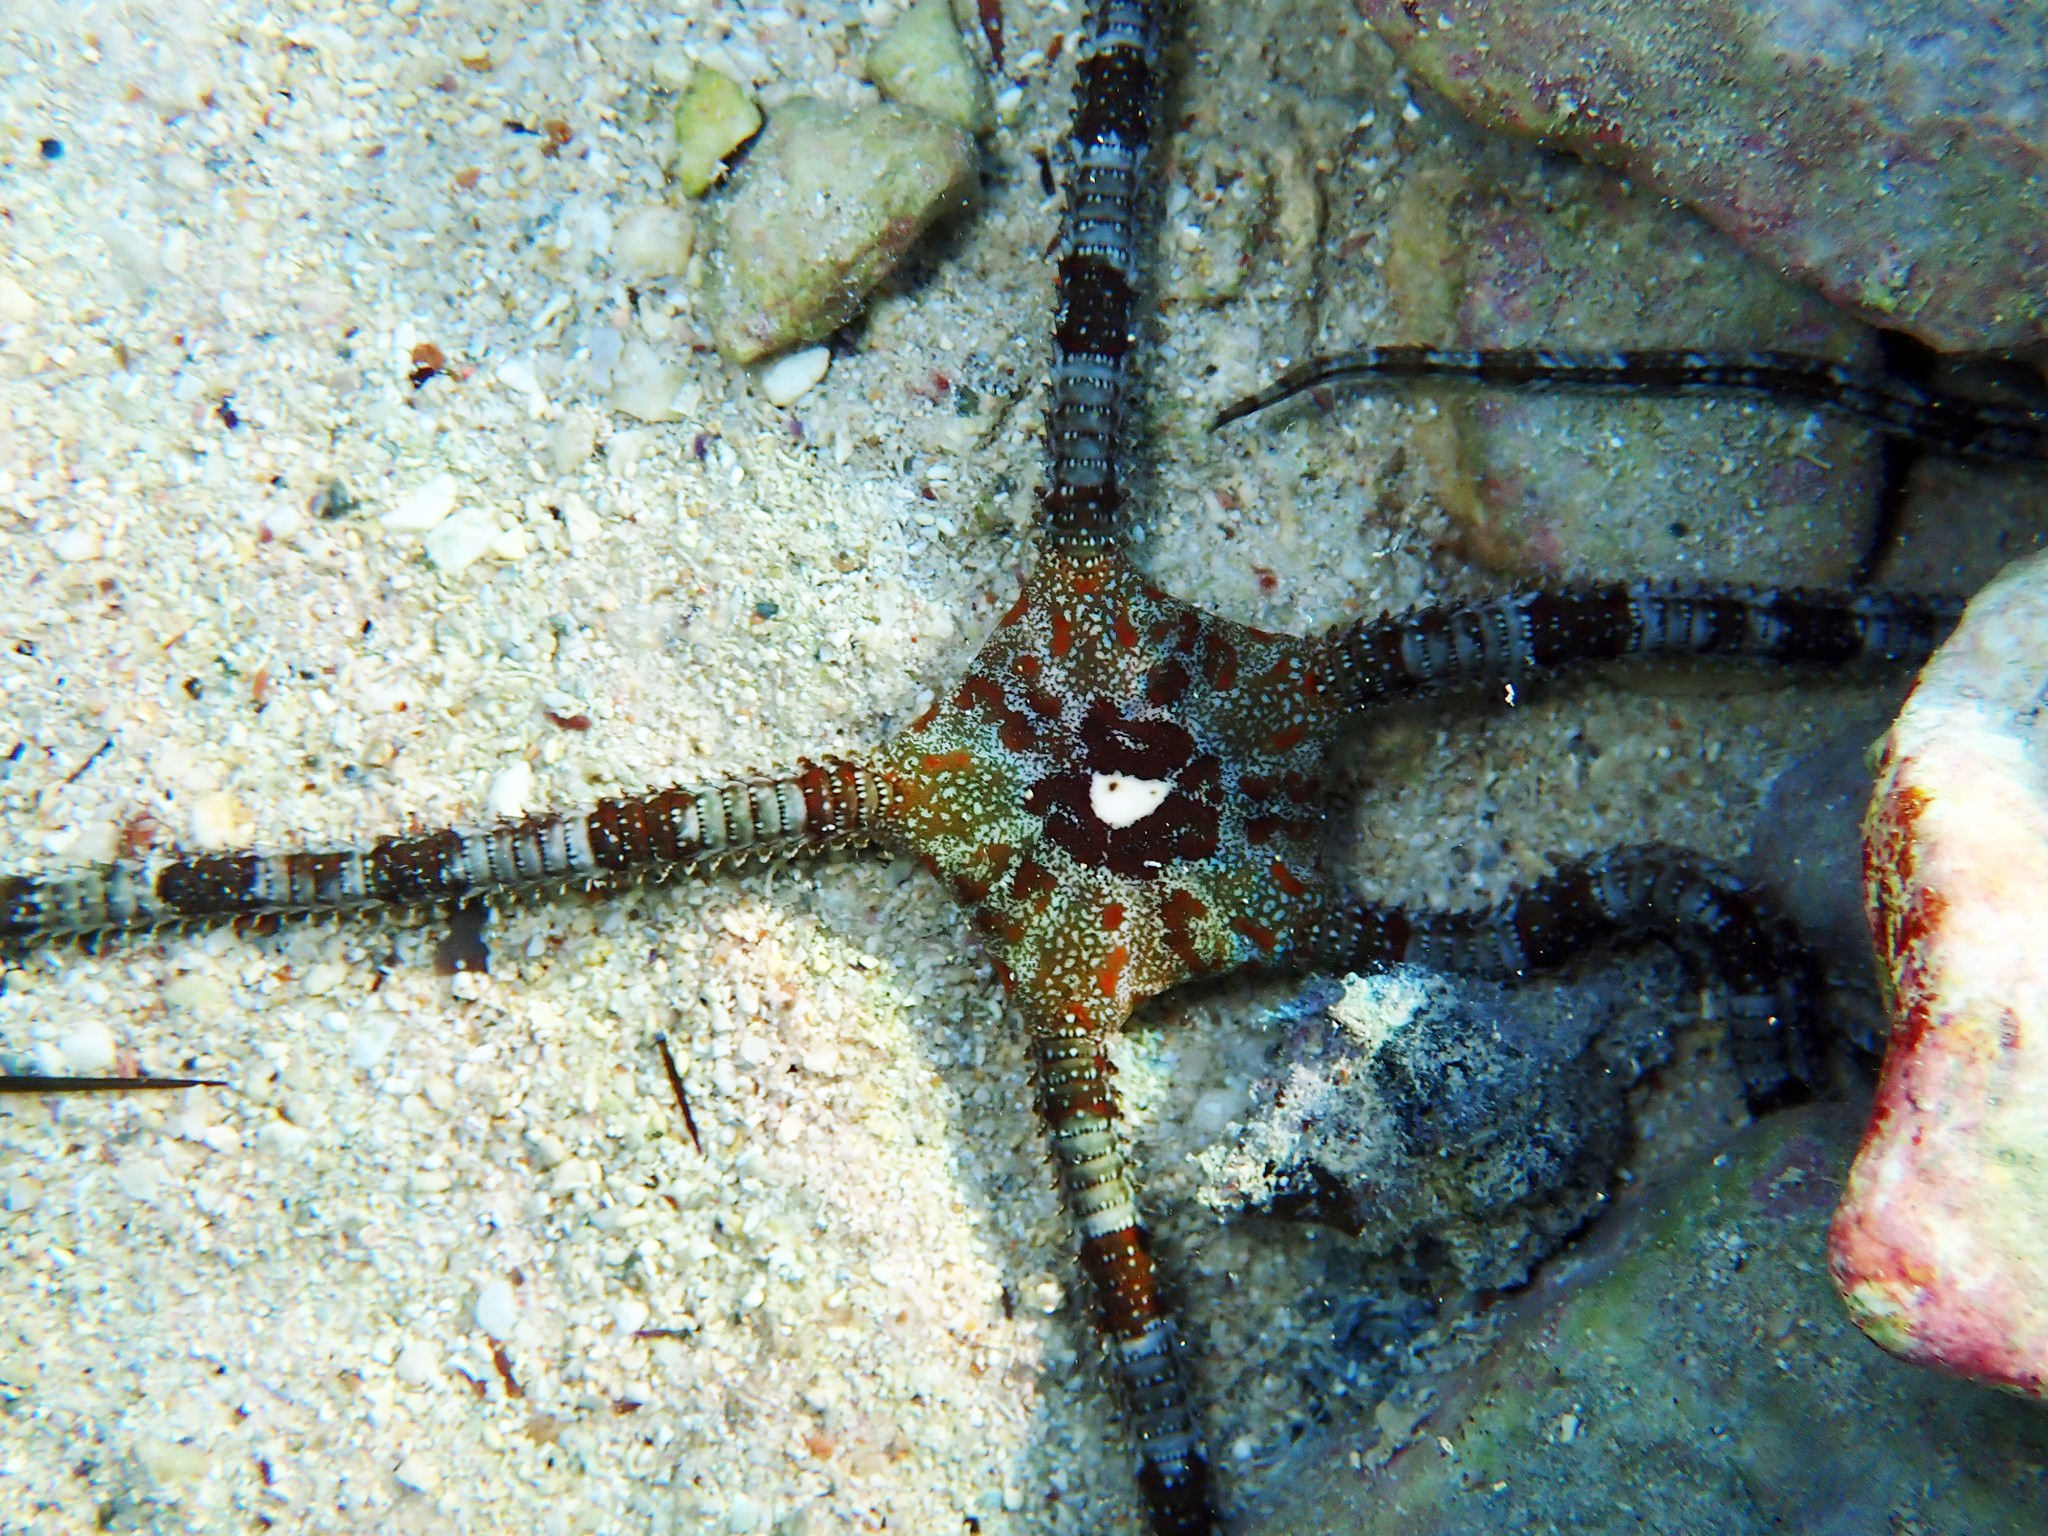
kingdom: Animalia
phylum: Echinodermata
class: Ophiuroidea
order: Ophiacanthida
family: Ophiodermatidae
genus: Ophioderma
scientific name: Ophioderma longicaudum
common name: Smooth brittle-star
